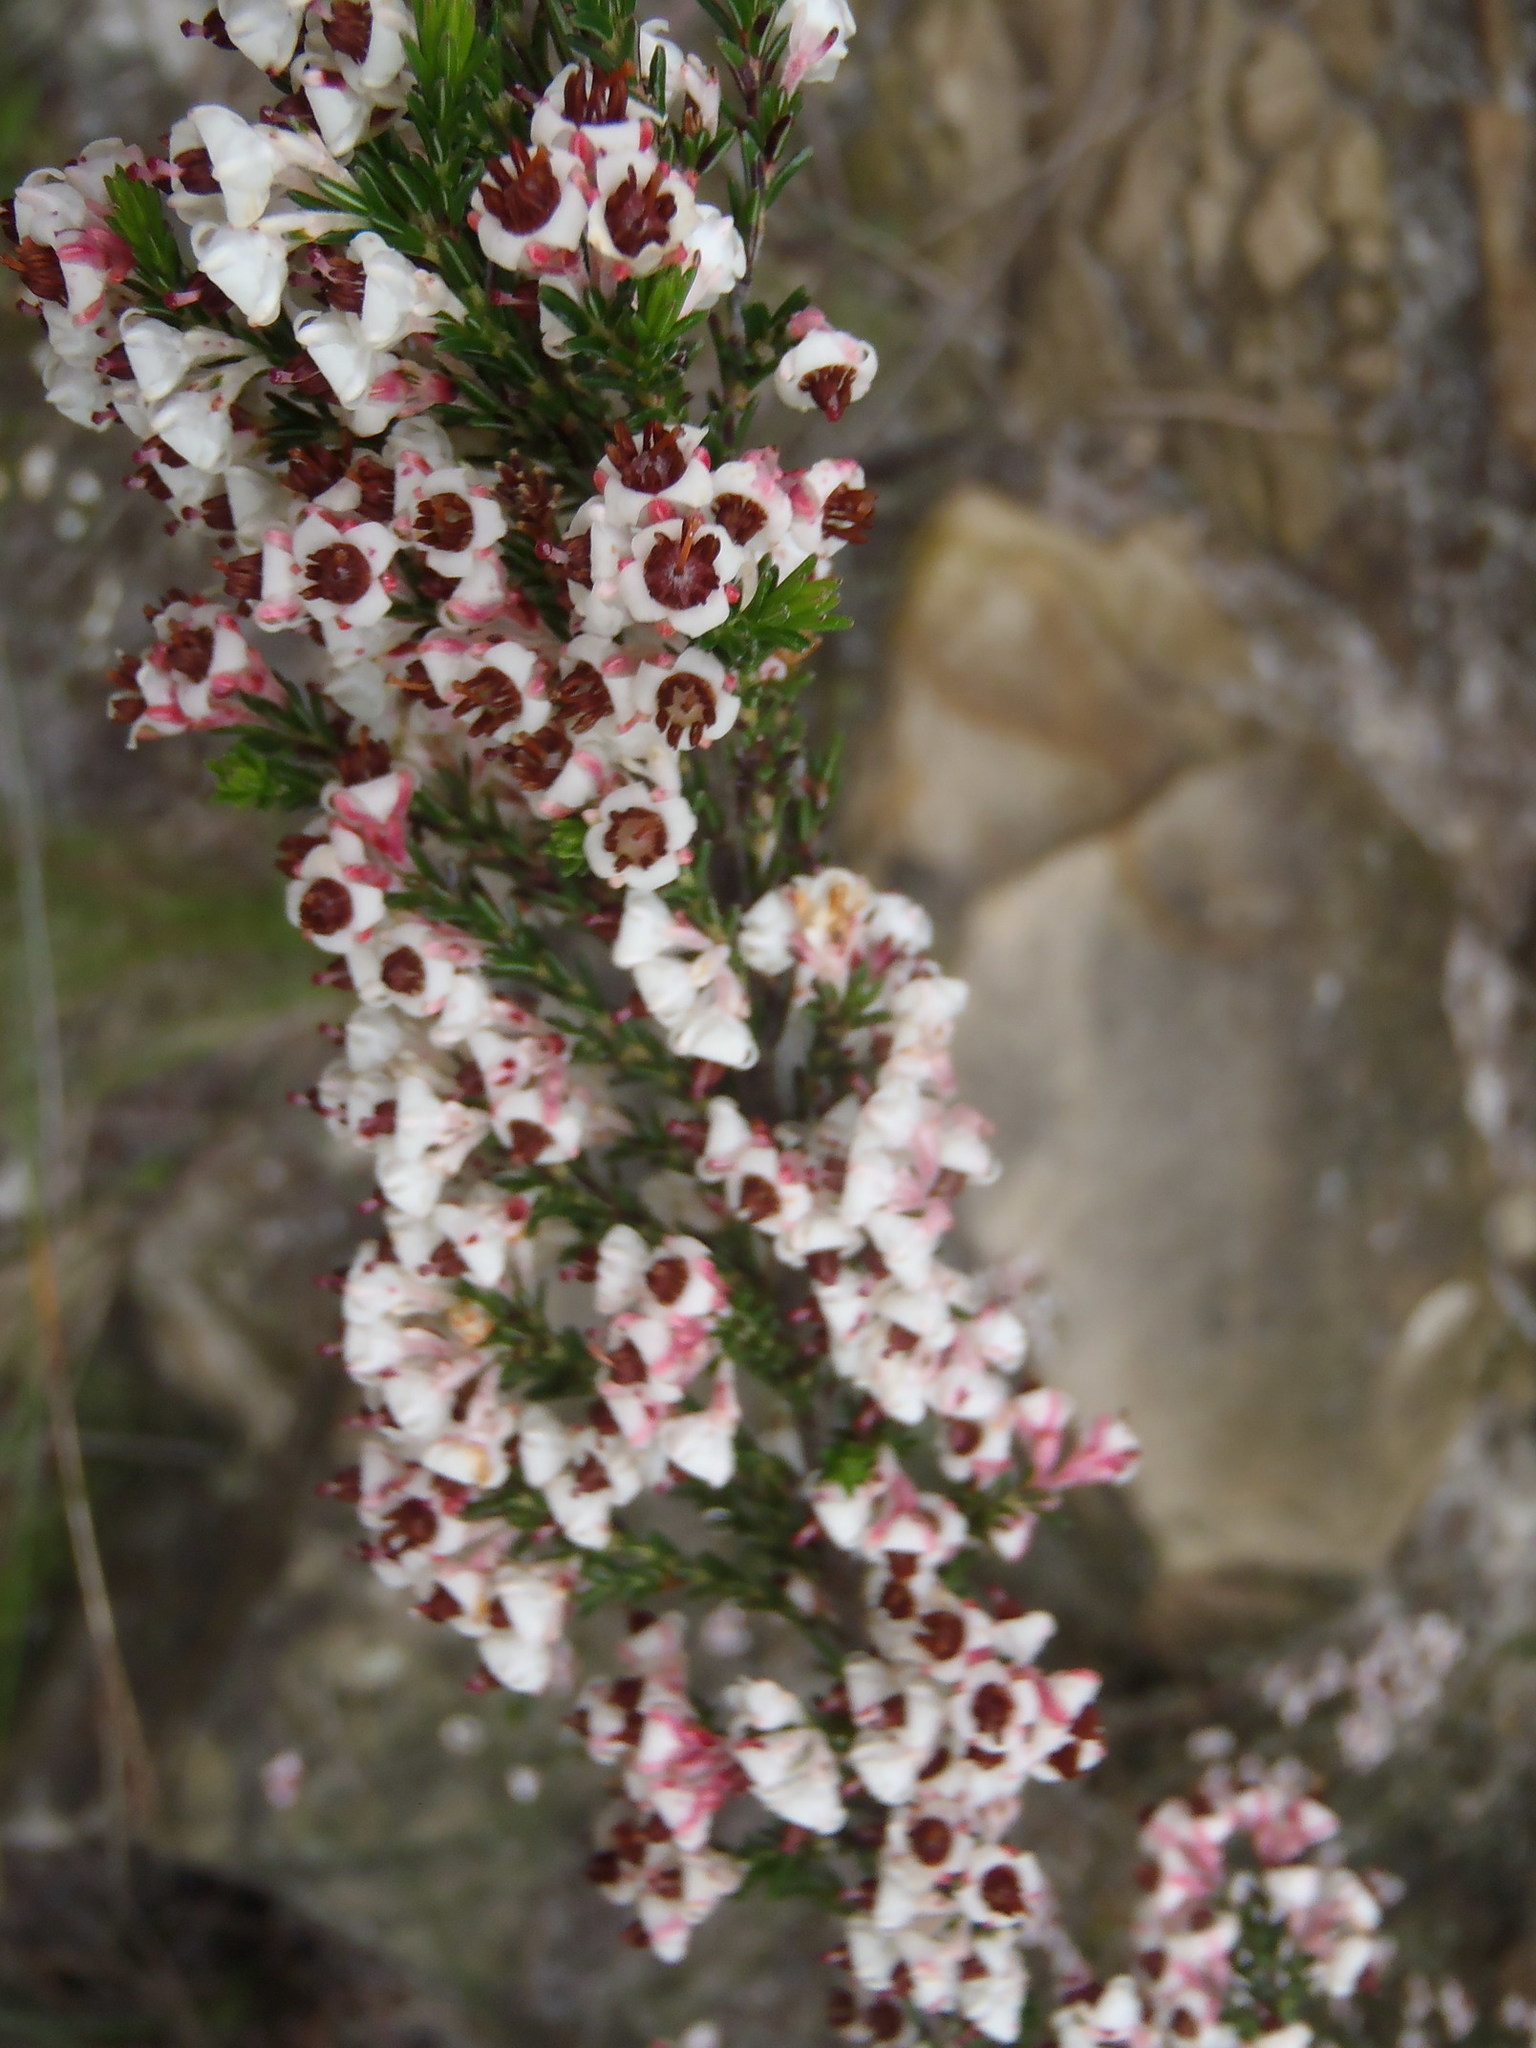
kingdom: Plantae
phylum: Tracheophyta
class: Magnoliopsida
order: Ericales
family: Ericaceae
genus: Erica
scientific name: Erica calycina
